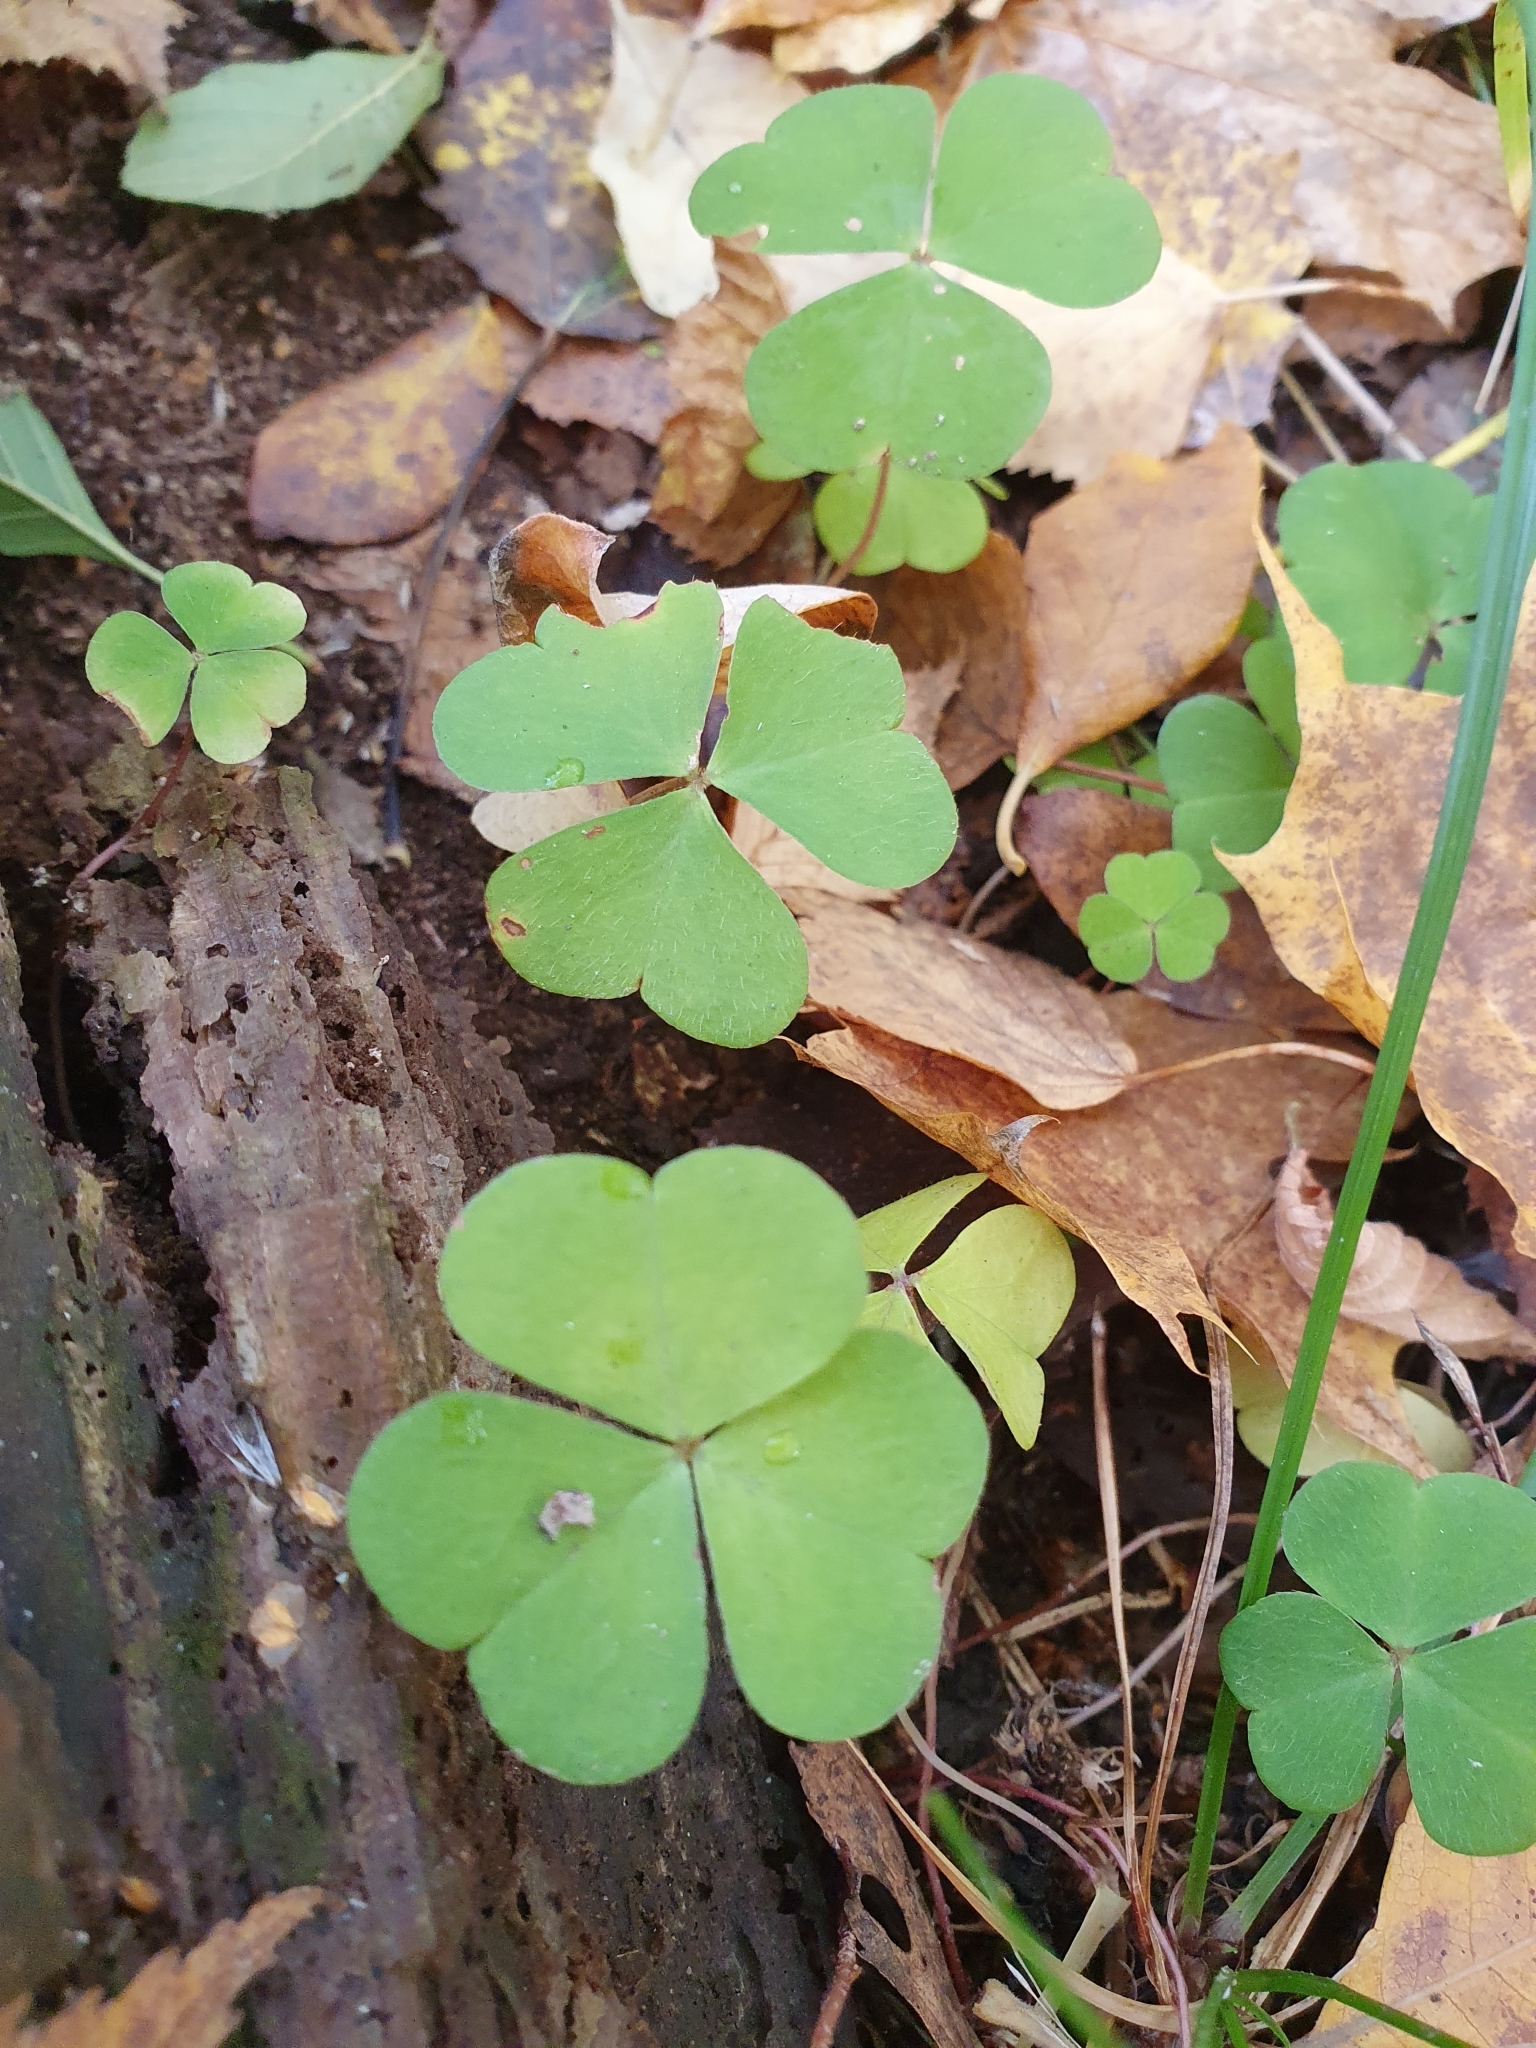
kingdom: Plantae
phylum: Tracheophyta
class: Magnoliopsida
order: Oxalidales
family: Oxalidaceae
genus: Oxalis
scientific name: Oxalis acetosella
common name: Wood-sorrel
